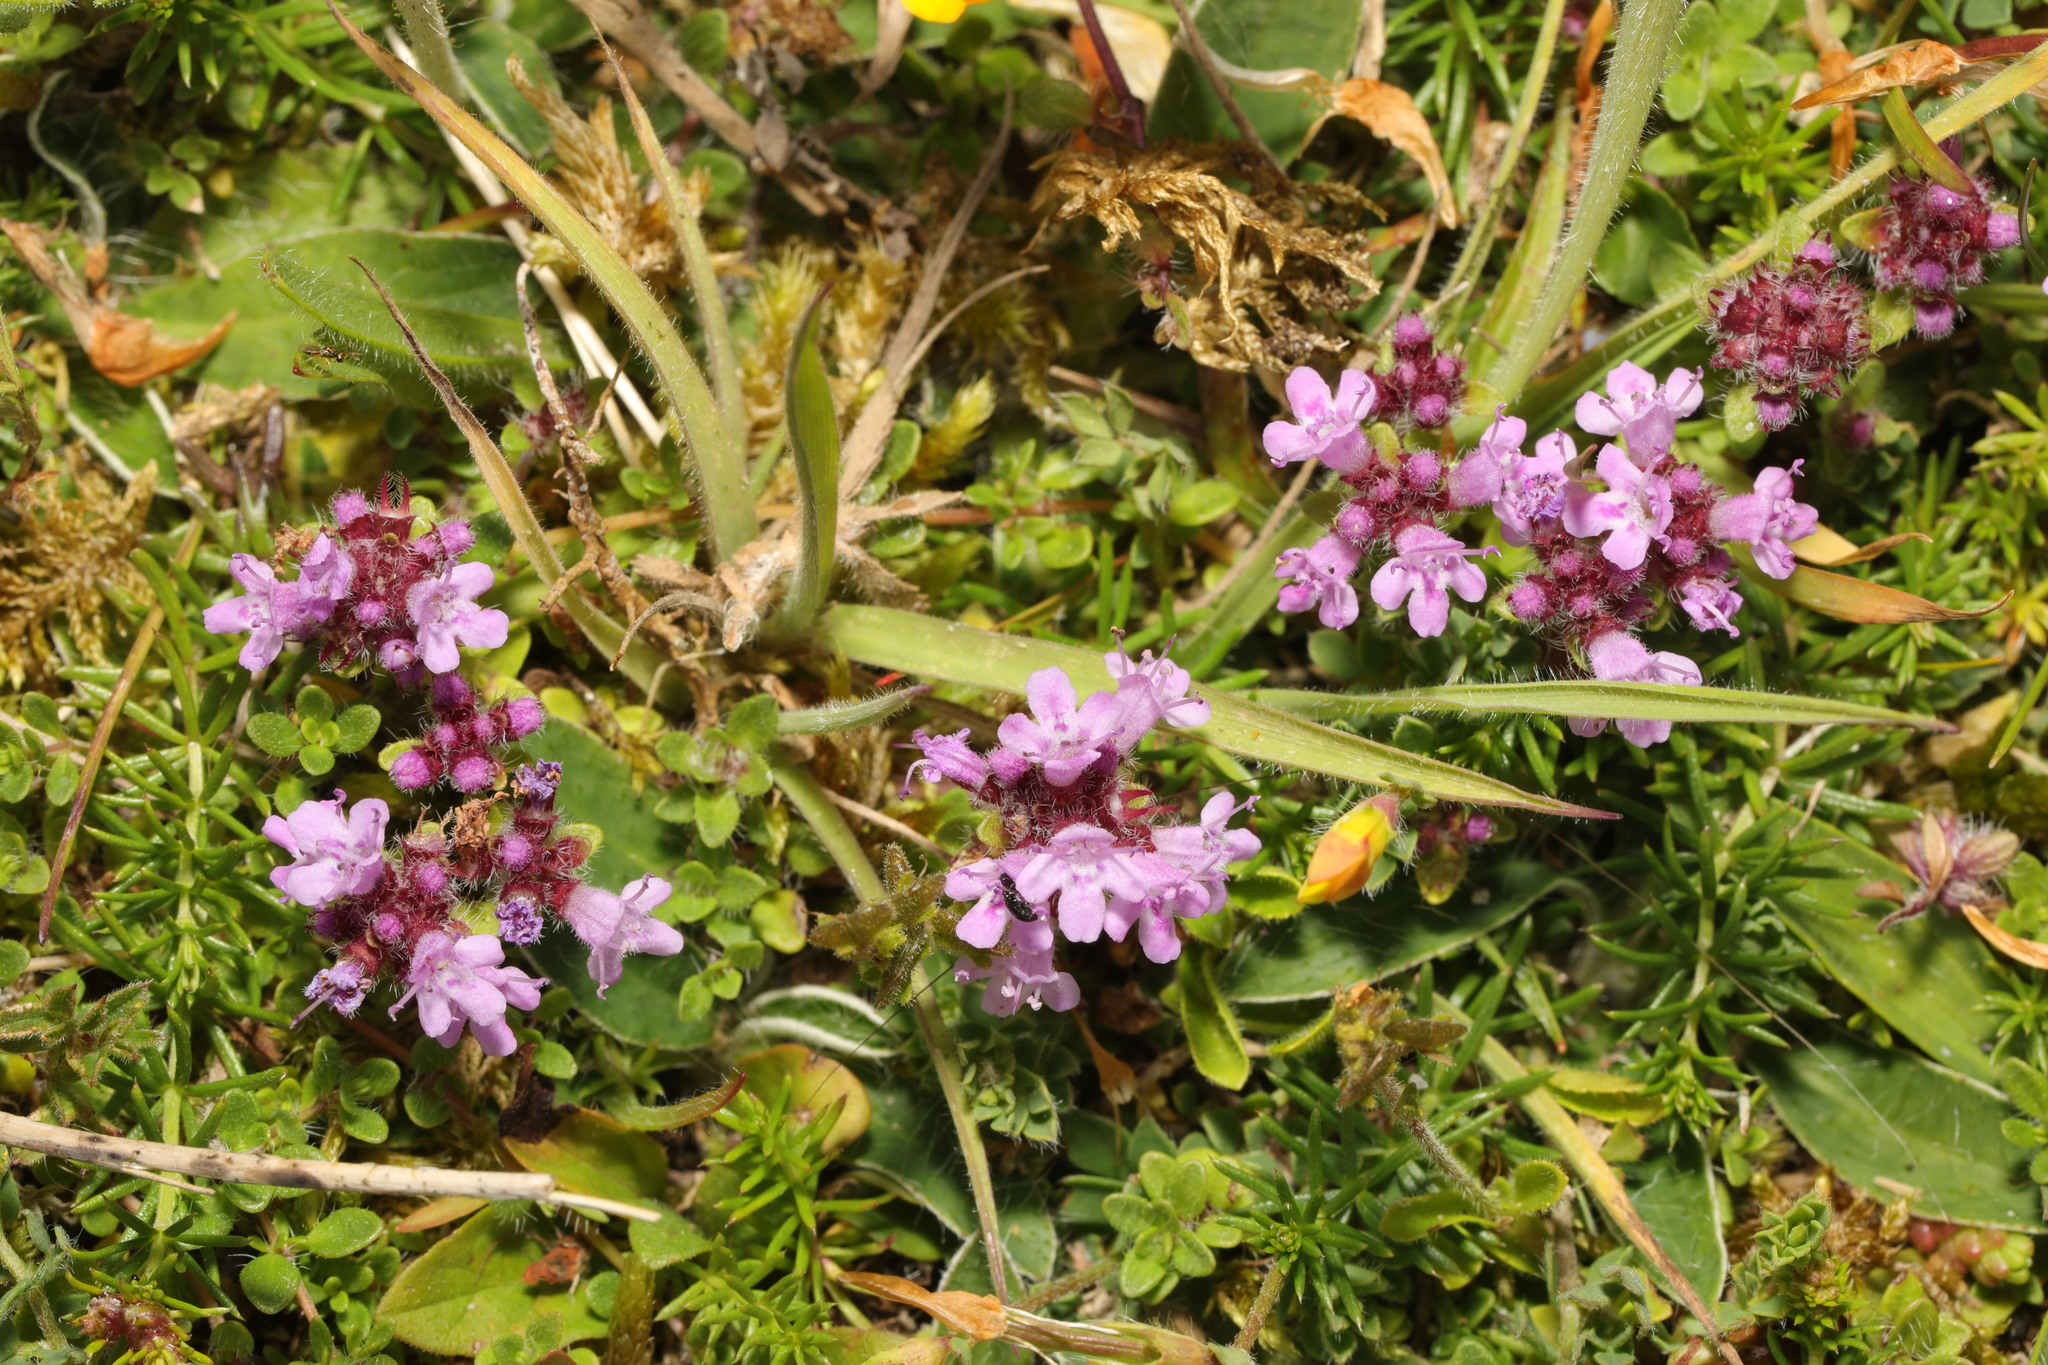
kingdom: Plantae
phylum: Tracheophyta
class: Magnoliopsida
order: Lamiales
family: Lamiaceae
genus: Thymus
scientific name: Thymus praecox
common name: Wild thyme
